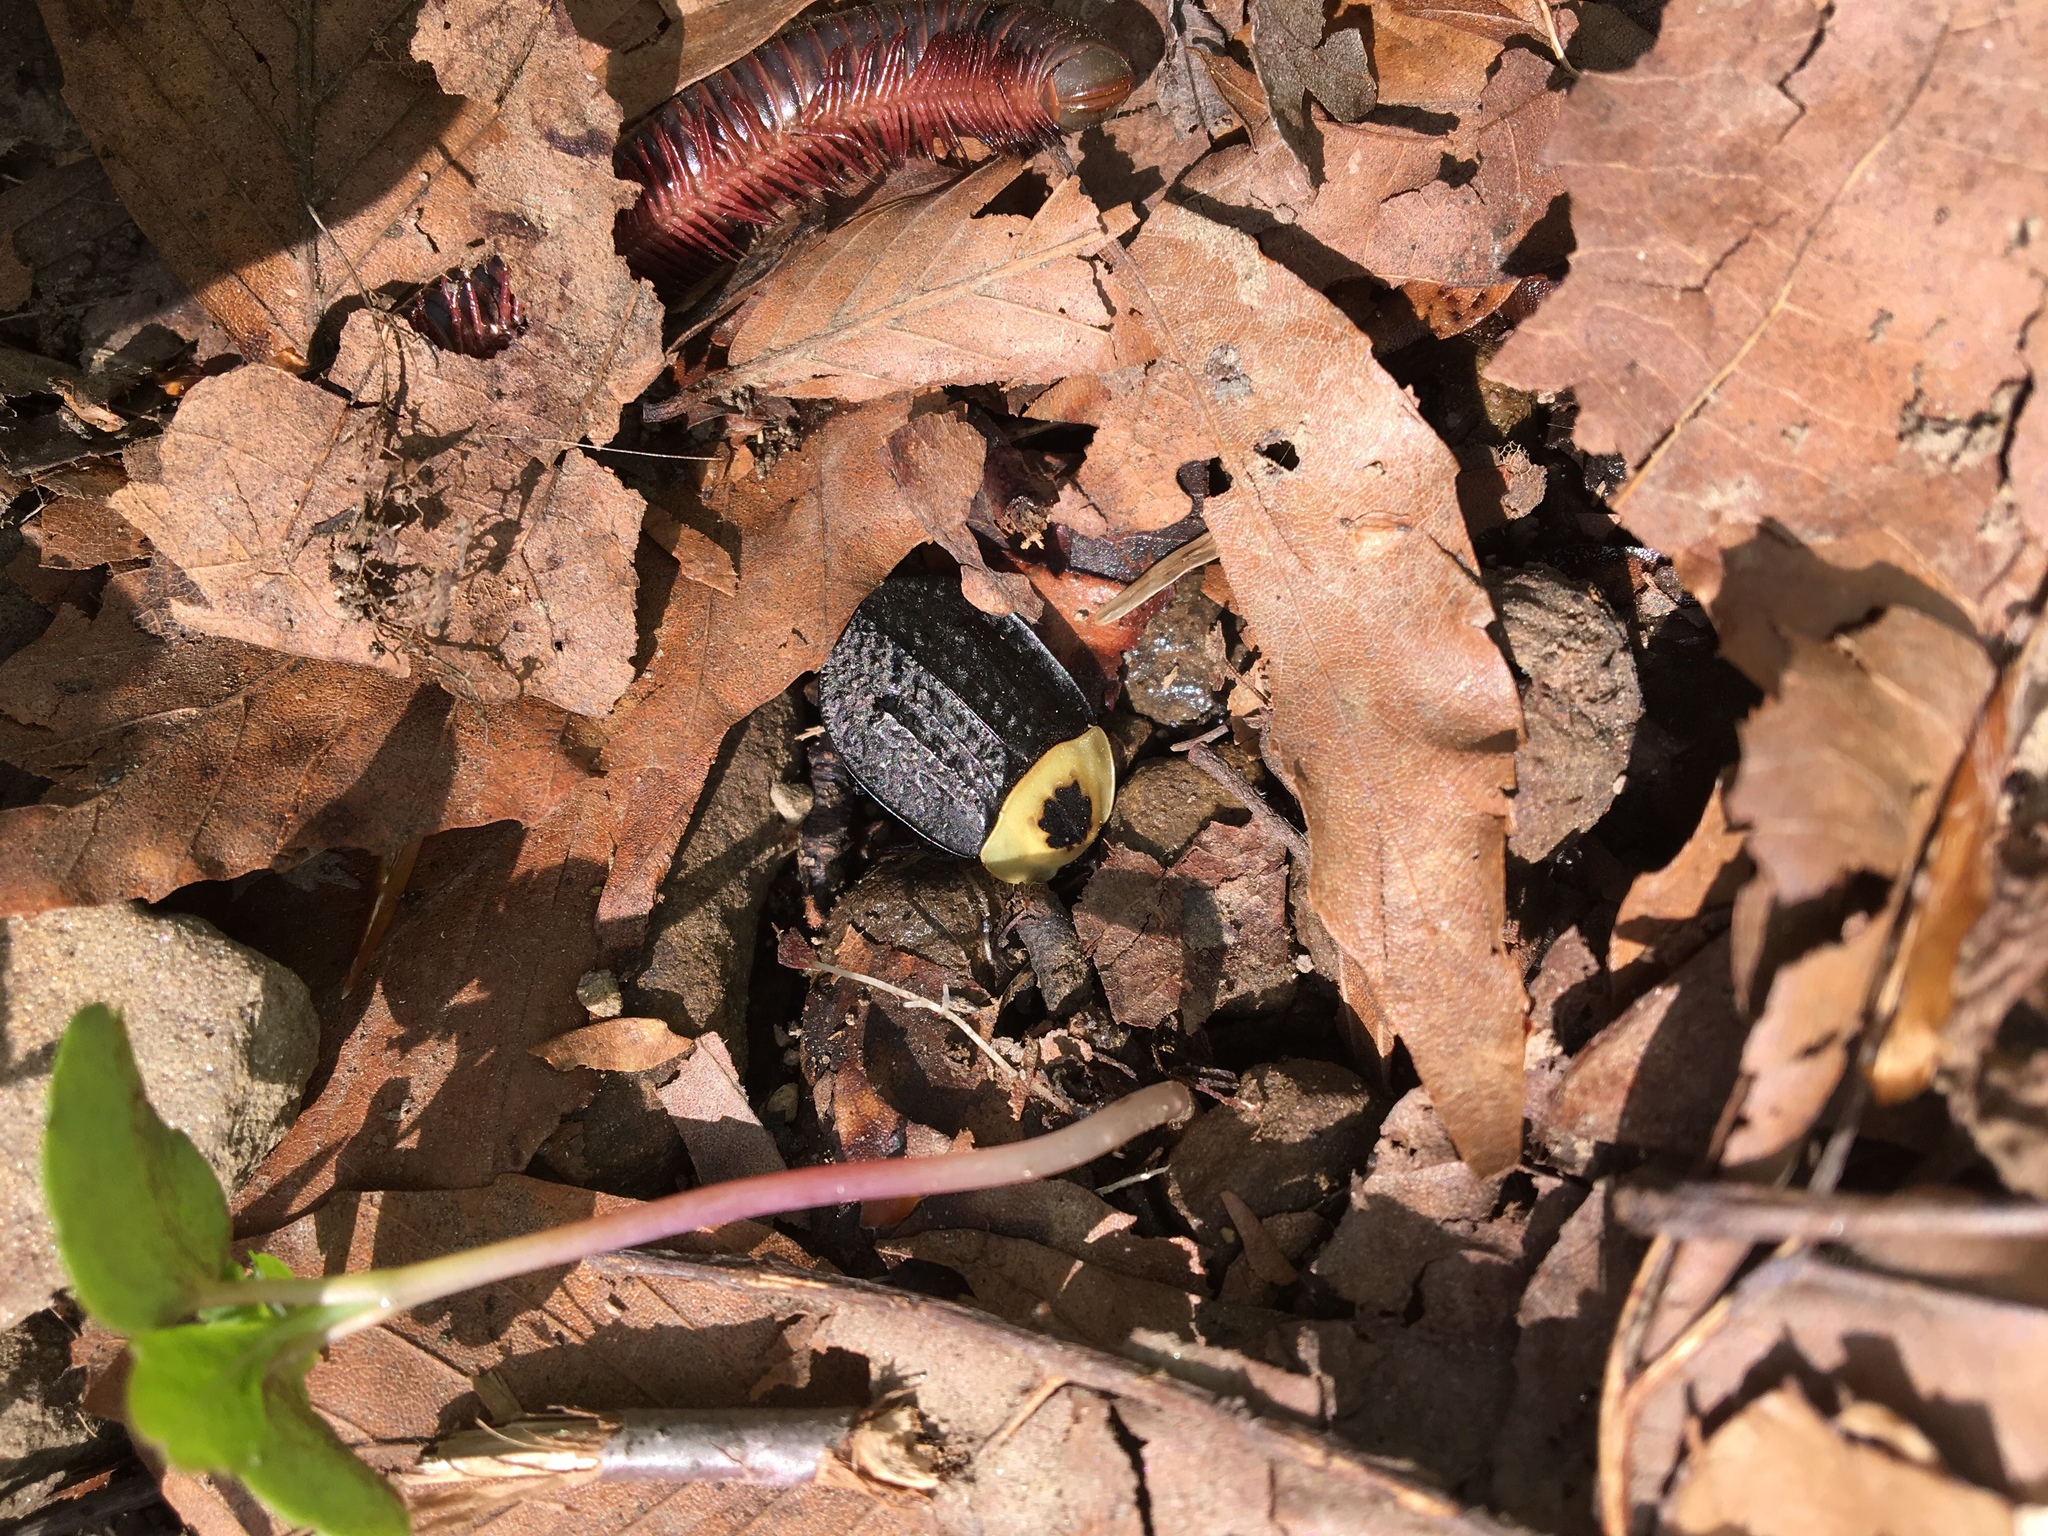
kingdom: Animalia
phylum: Arthropoda
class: Insecta
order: Coleoptera
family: Staphylinidae
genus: Necrophila
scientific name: Necrophila americana
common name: American carrion beetle
